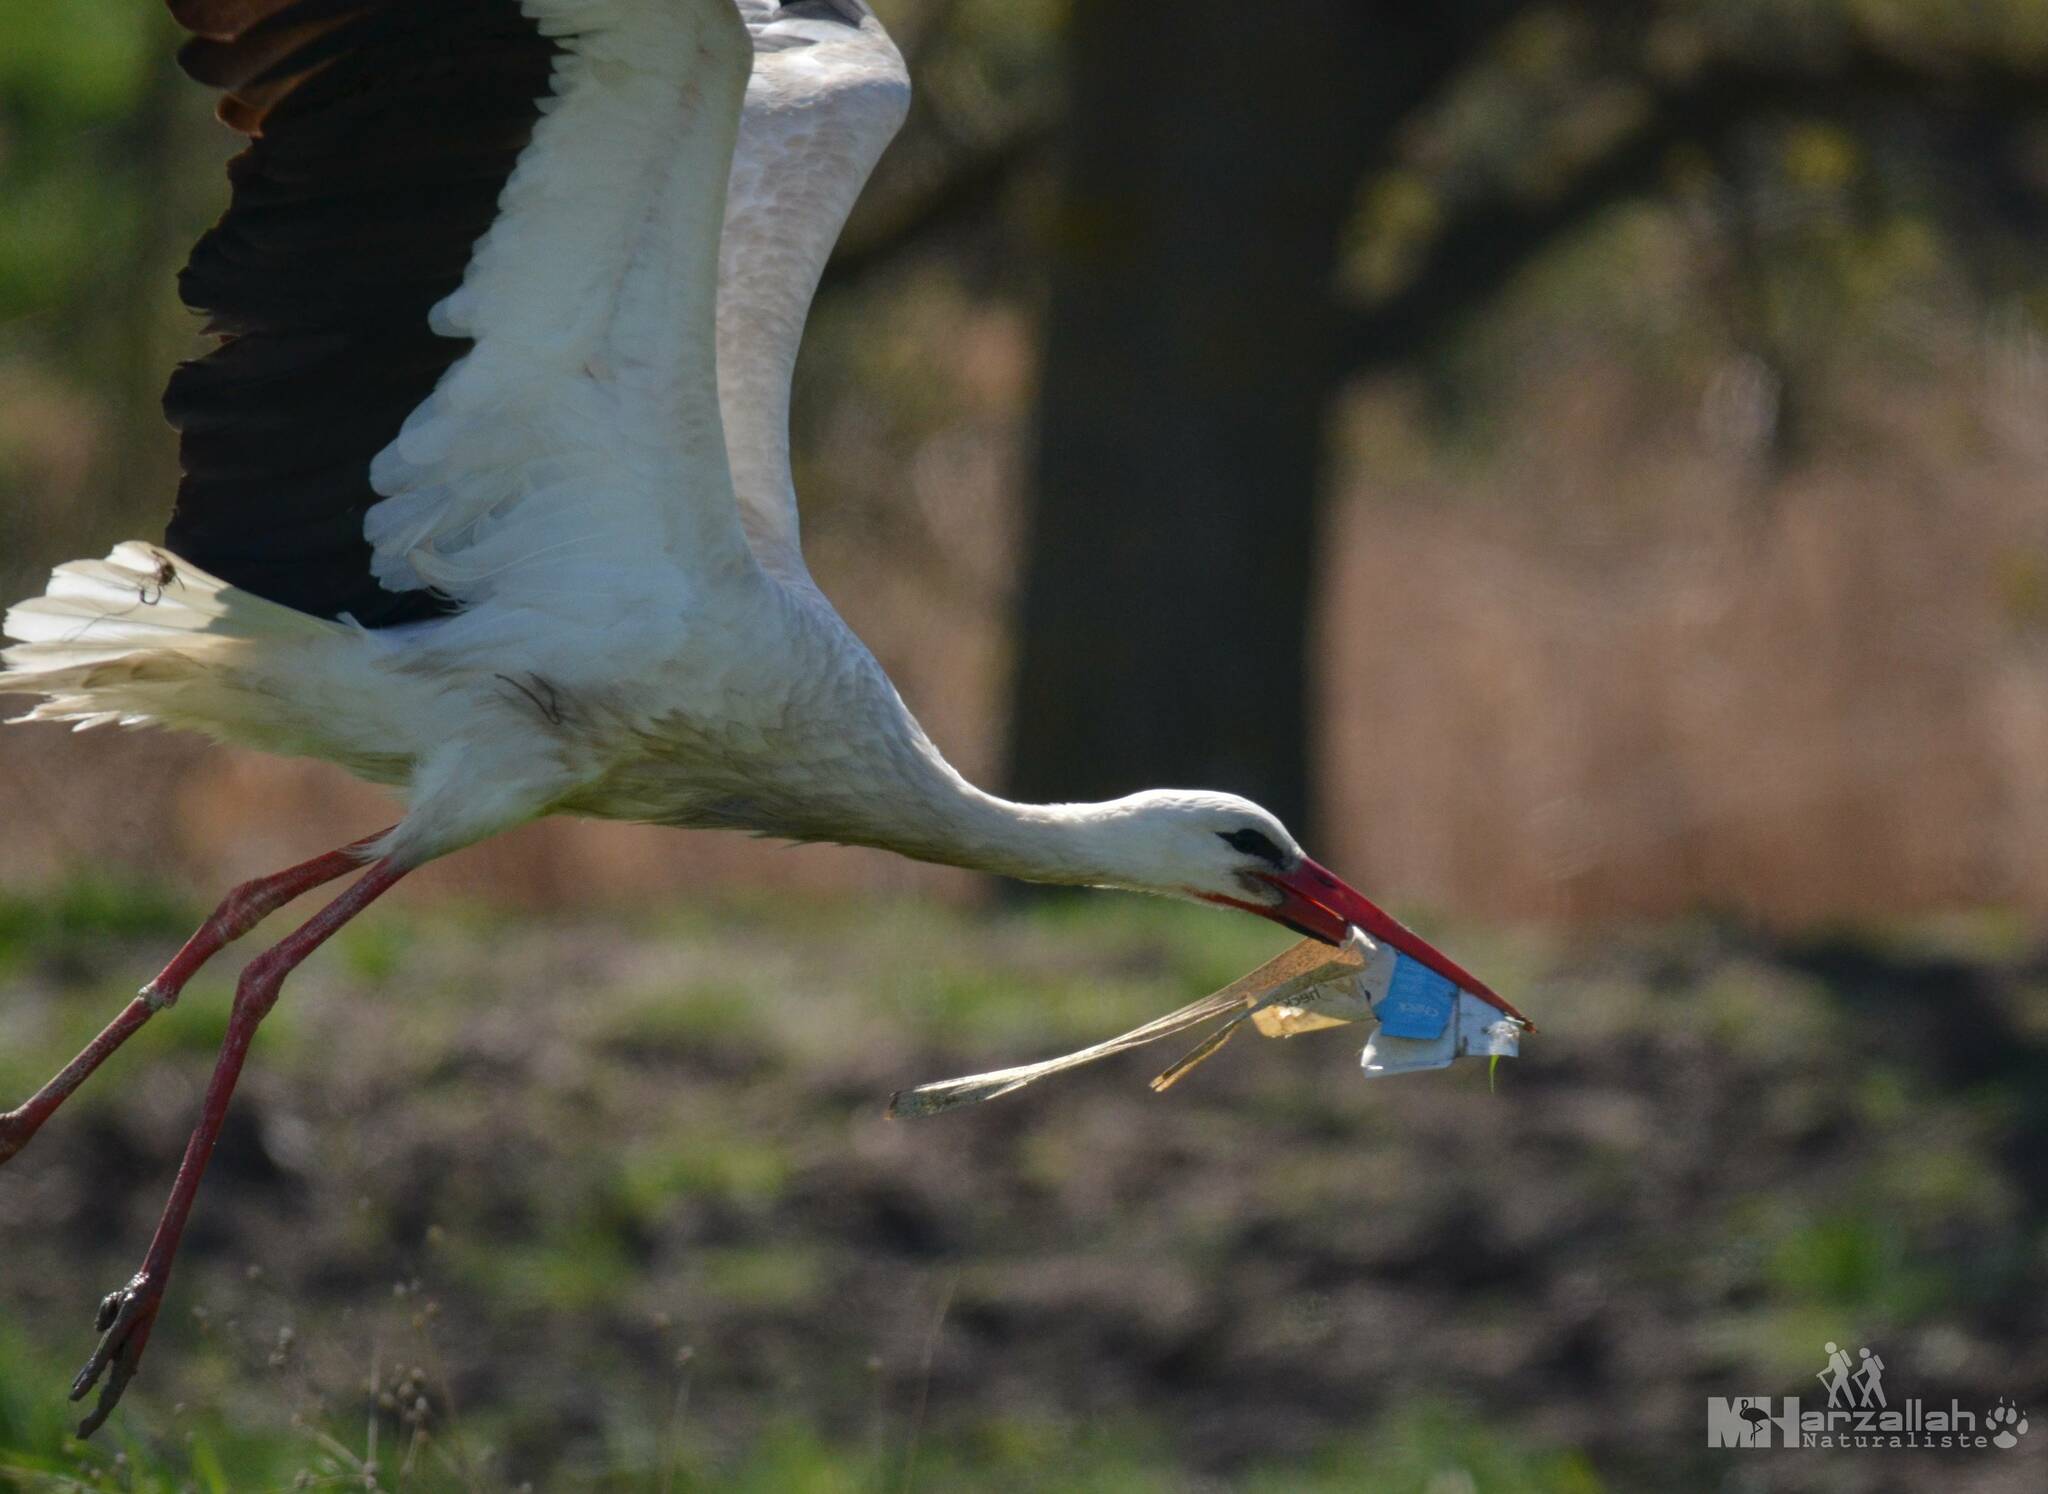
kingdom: Animalia
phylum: Chordata
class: Aves
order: Ciconiiformes
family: Ciconiidae
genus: Ciconia
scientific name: Ciconia ciconia
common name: White stork
